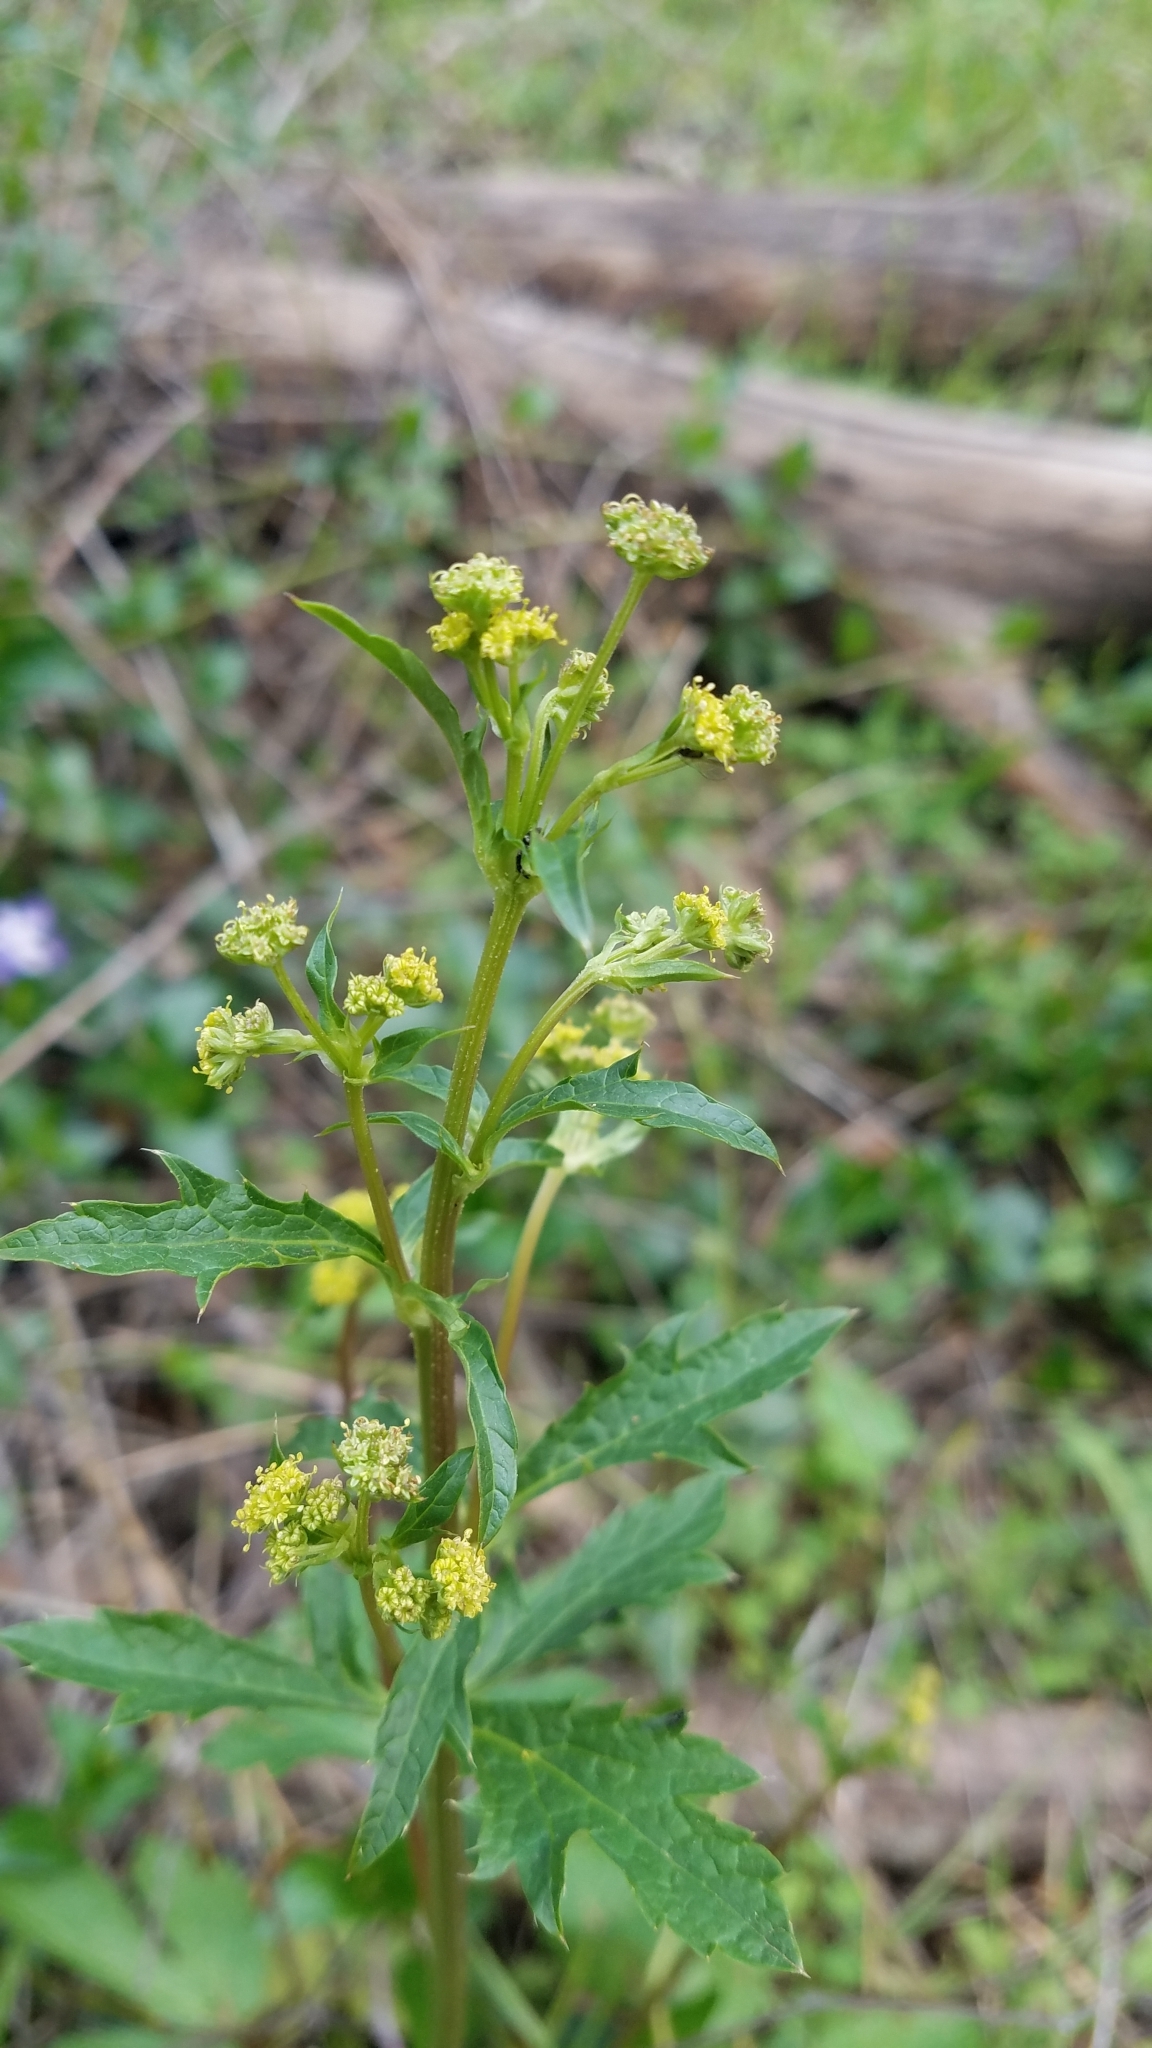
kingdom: Plantae
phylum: Tracheophyta
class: Magnoliopsida
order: Apiales
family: Apiaceae
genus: Sanicula
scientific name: Sanicula crassicaulis
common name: Western snakeroot
